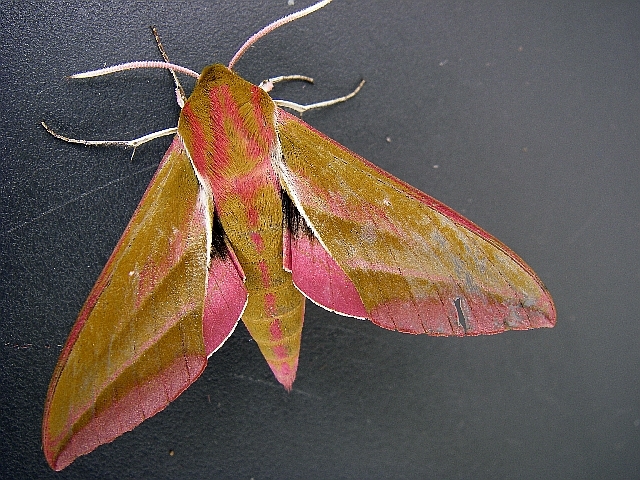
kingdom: Animalia
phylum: Arthropoda
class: Insecta
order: Lepidoptera
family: Sphingidae
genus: Deilephila
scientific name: Deilephila elpenor
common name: Elephant hawk-moth
